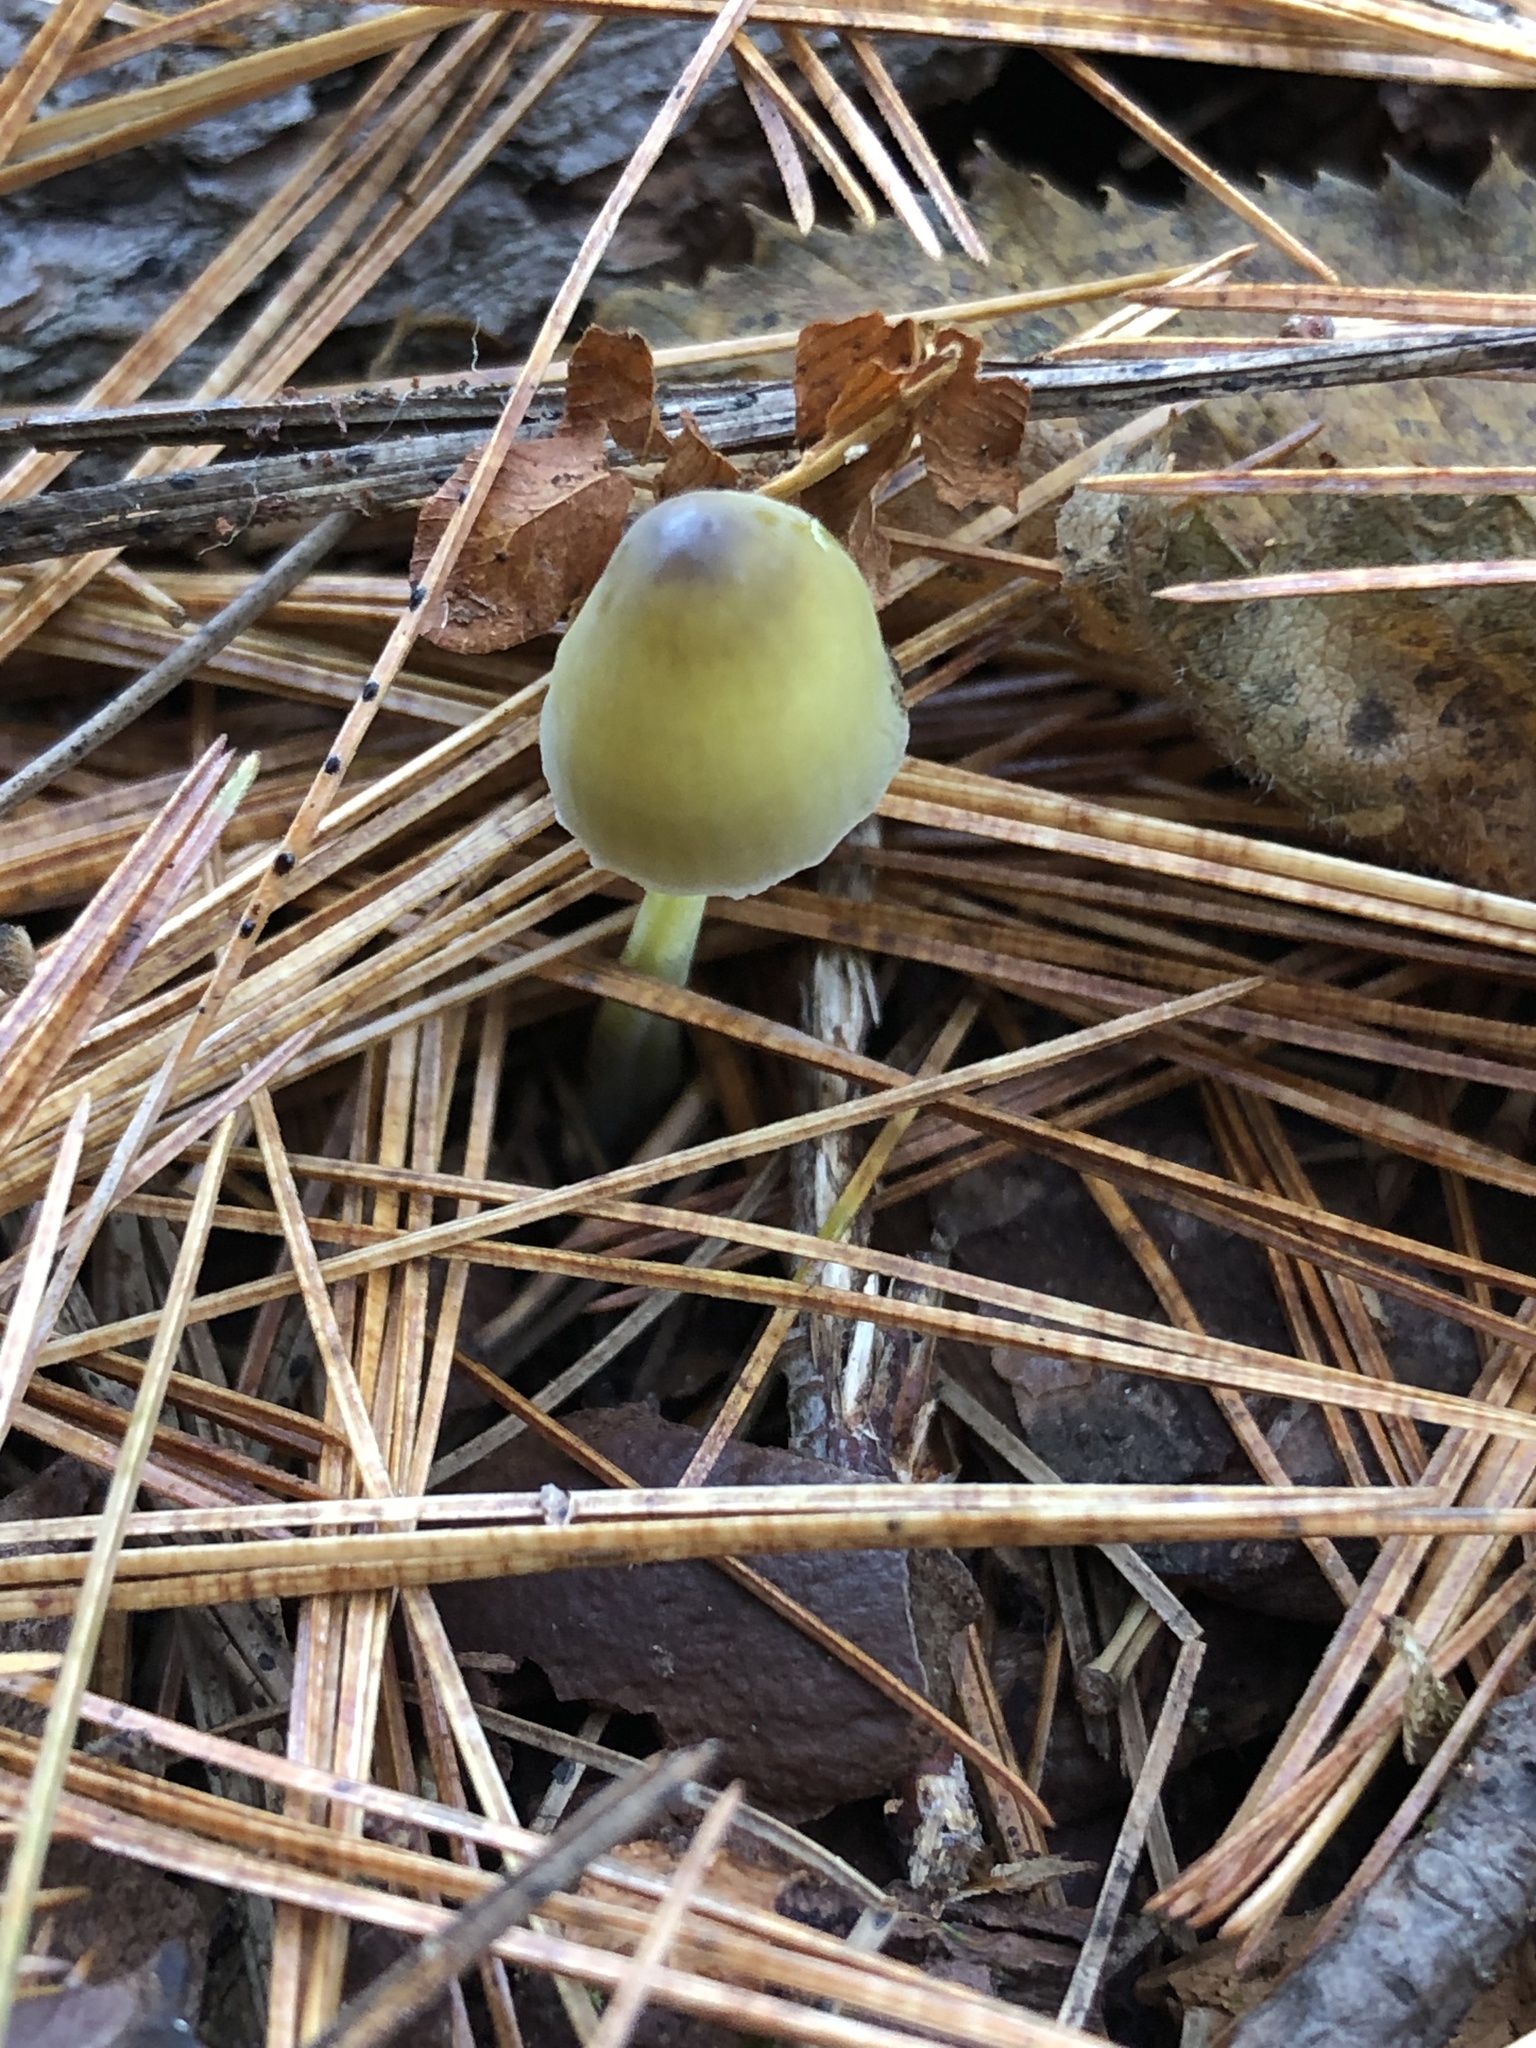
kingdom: Fungi
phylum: Basidiomycota
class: Agaricomycetes
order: Agaricales
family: Mycenaceae
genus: Mycena
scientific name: Mycena epipterygia
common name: Yellowleg bonnet
